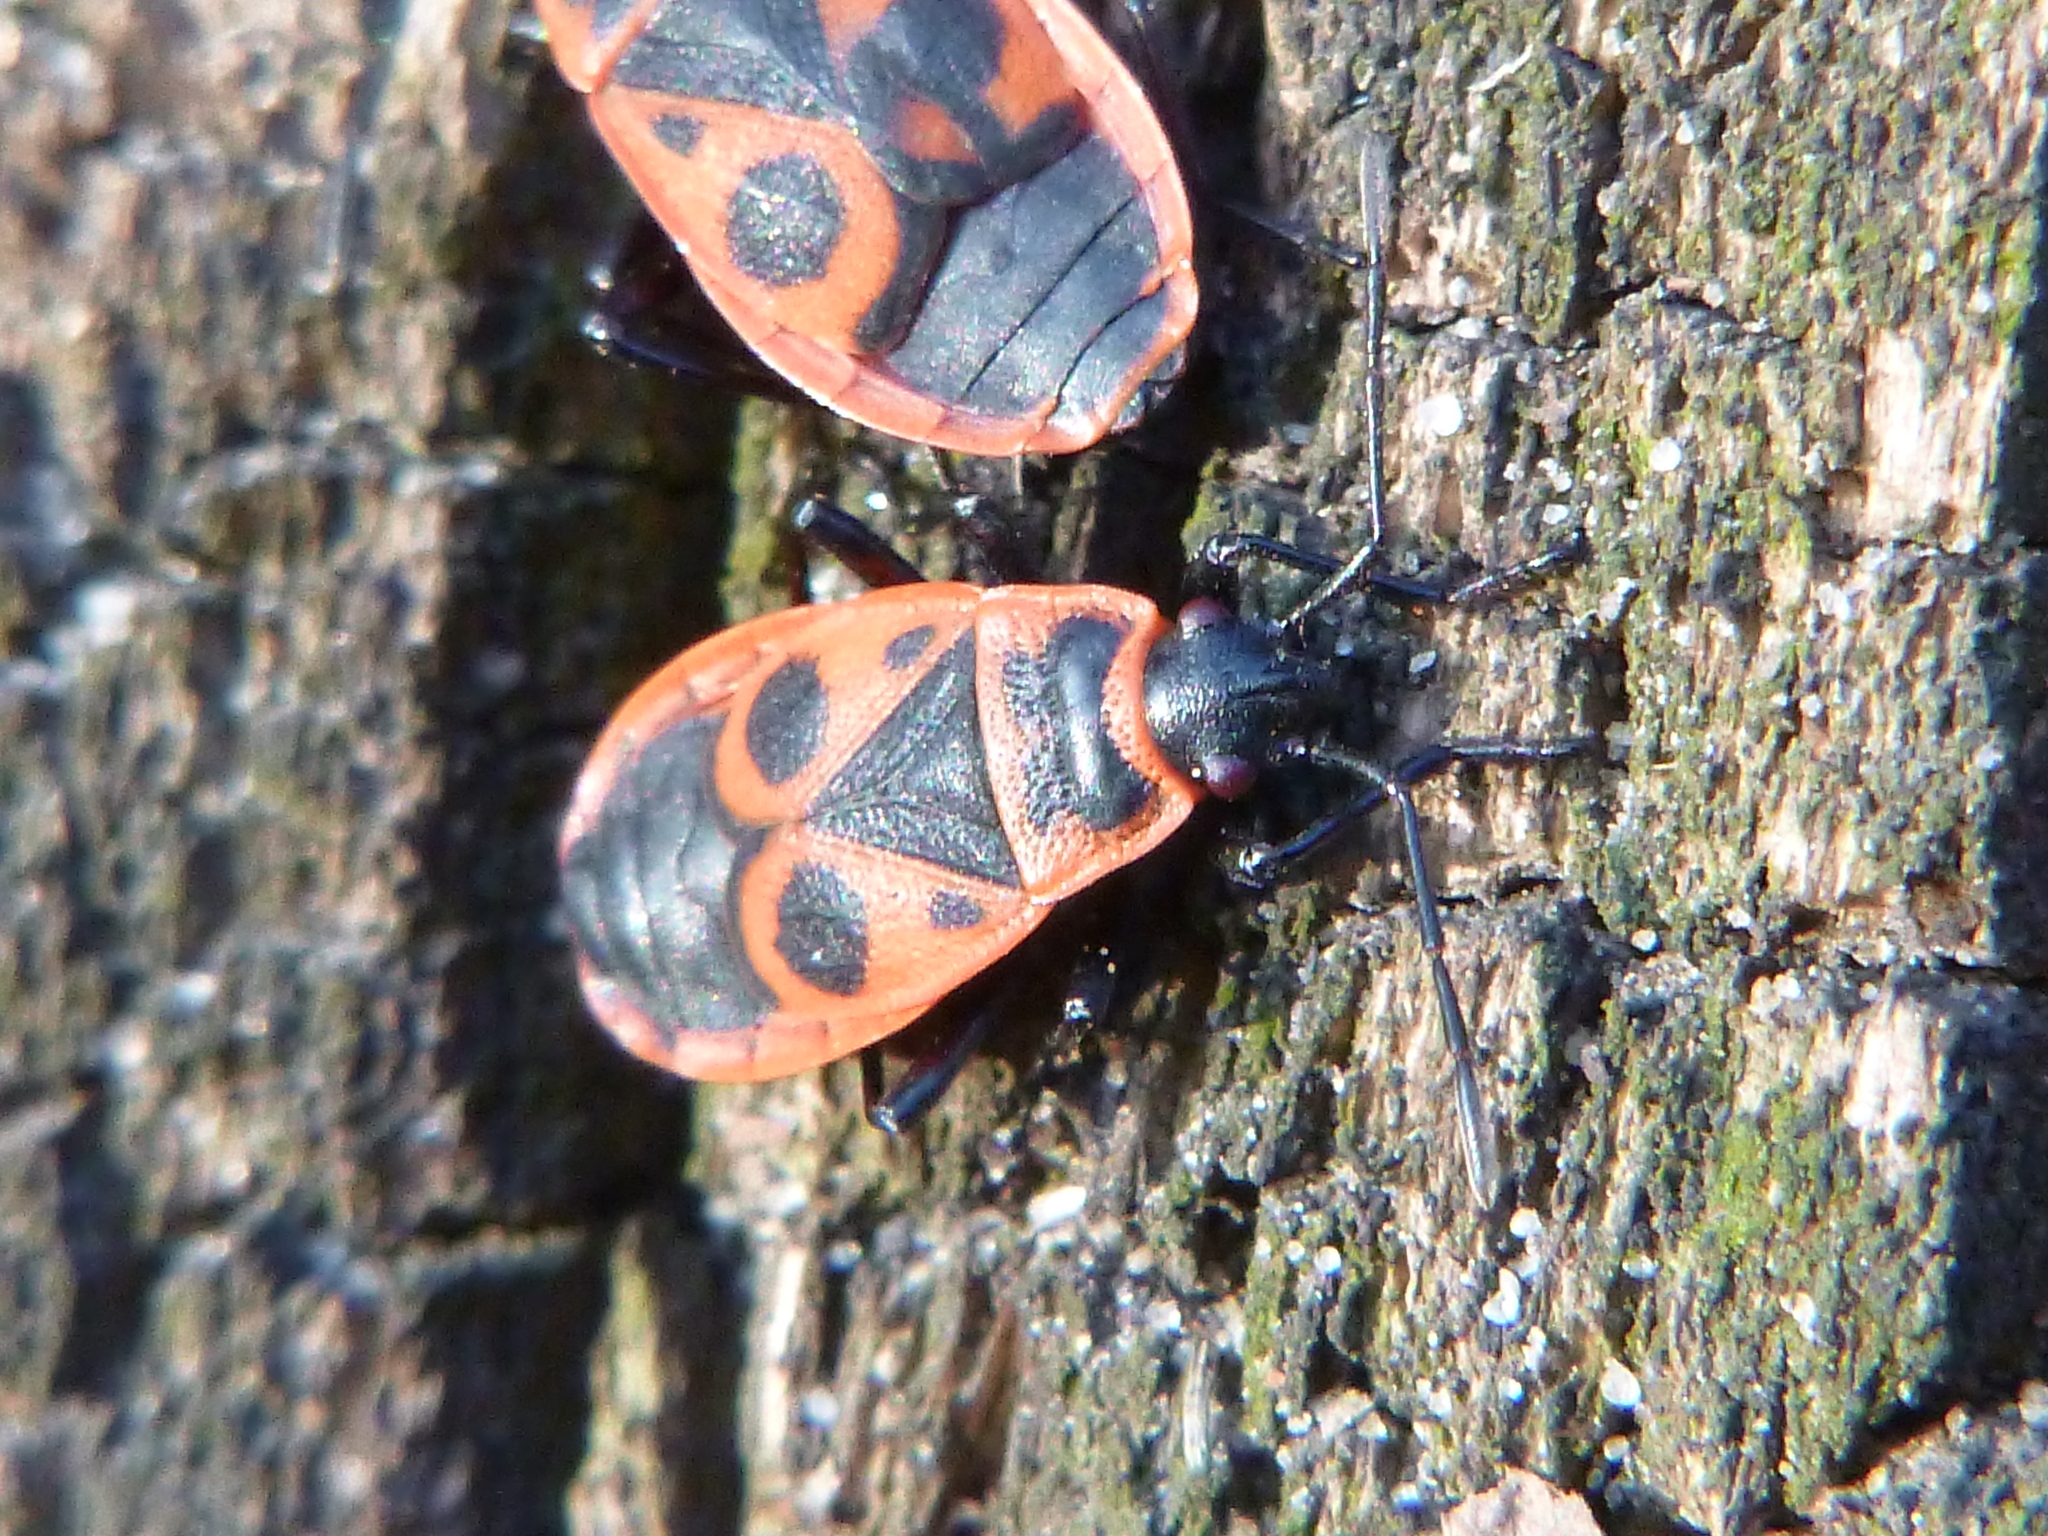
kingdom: Animalia
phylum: Arthropoda
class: Insecta
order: Hemiptera
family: Pyrrhocoridae
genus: Pyrrhocoris
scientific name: Pyrrhocoris apterus
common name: Firebug
